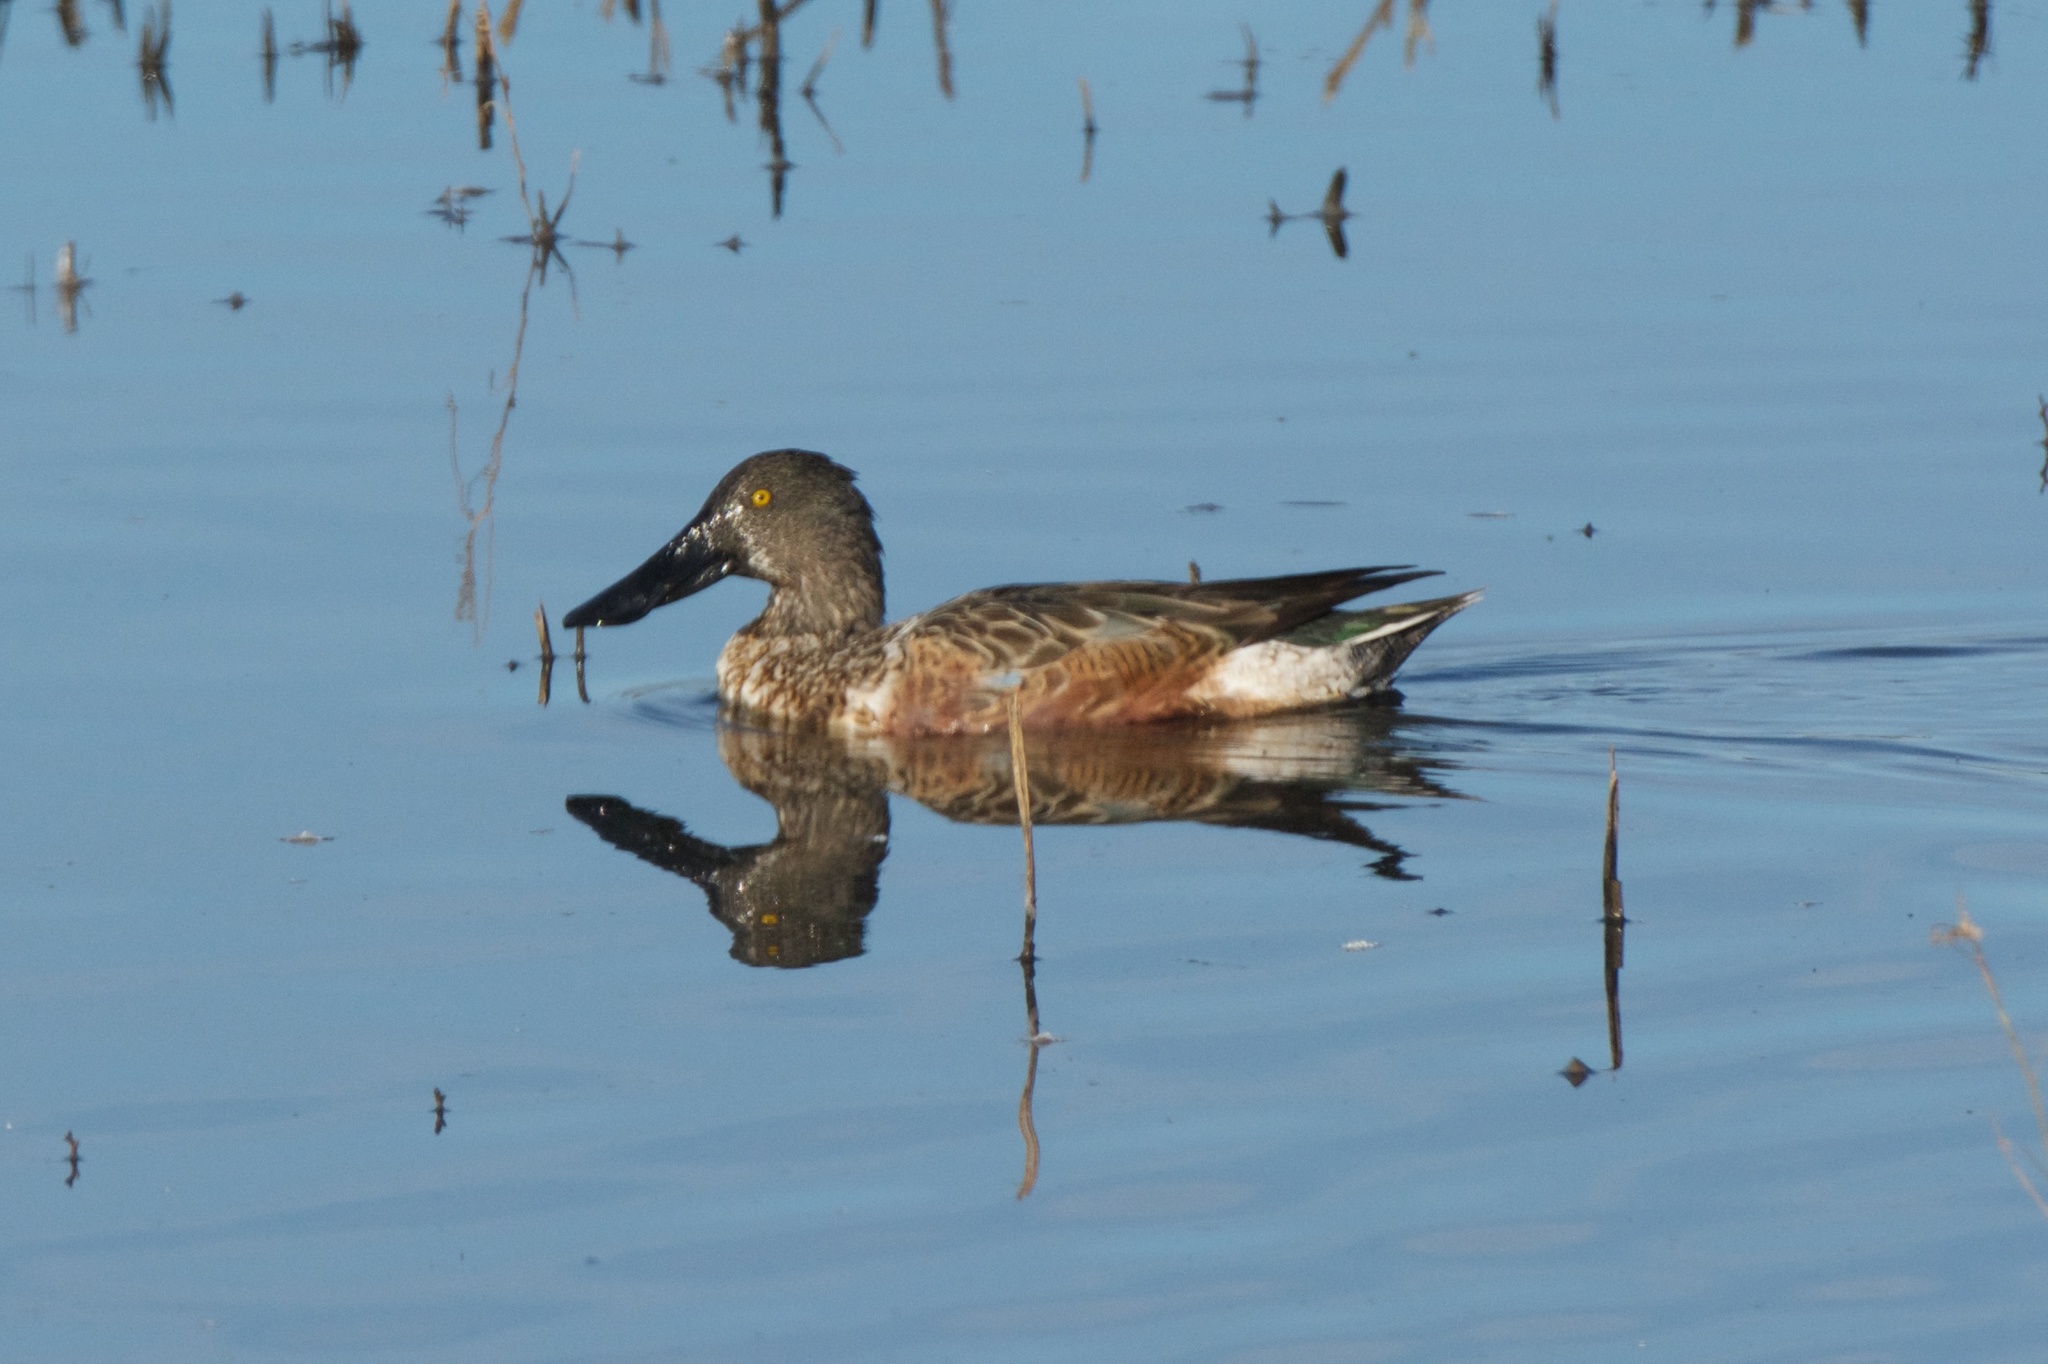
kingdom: Animalia
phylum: Chordata
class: Aves
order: Anseriformes
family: Anatidae
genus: Spatula
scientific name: Spatula clypeata
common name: Northern shoveler
